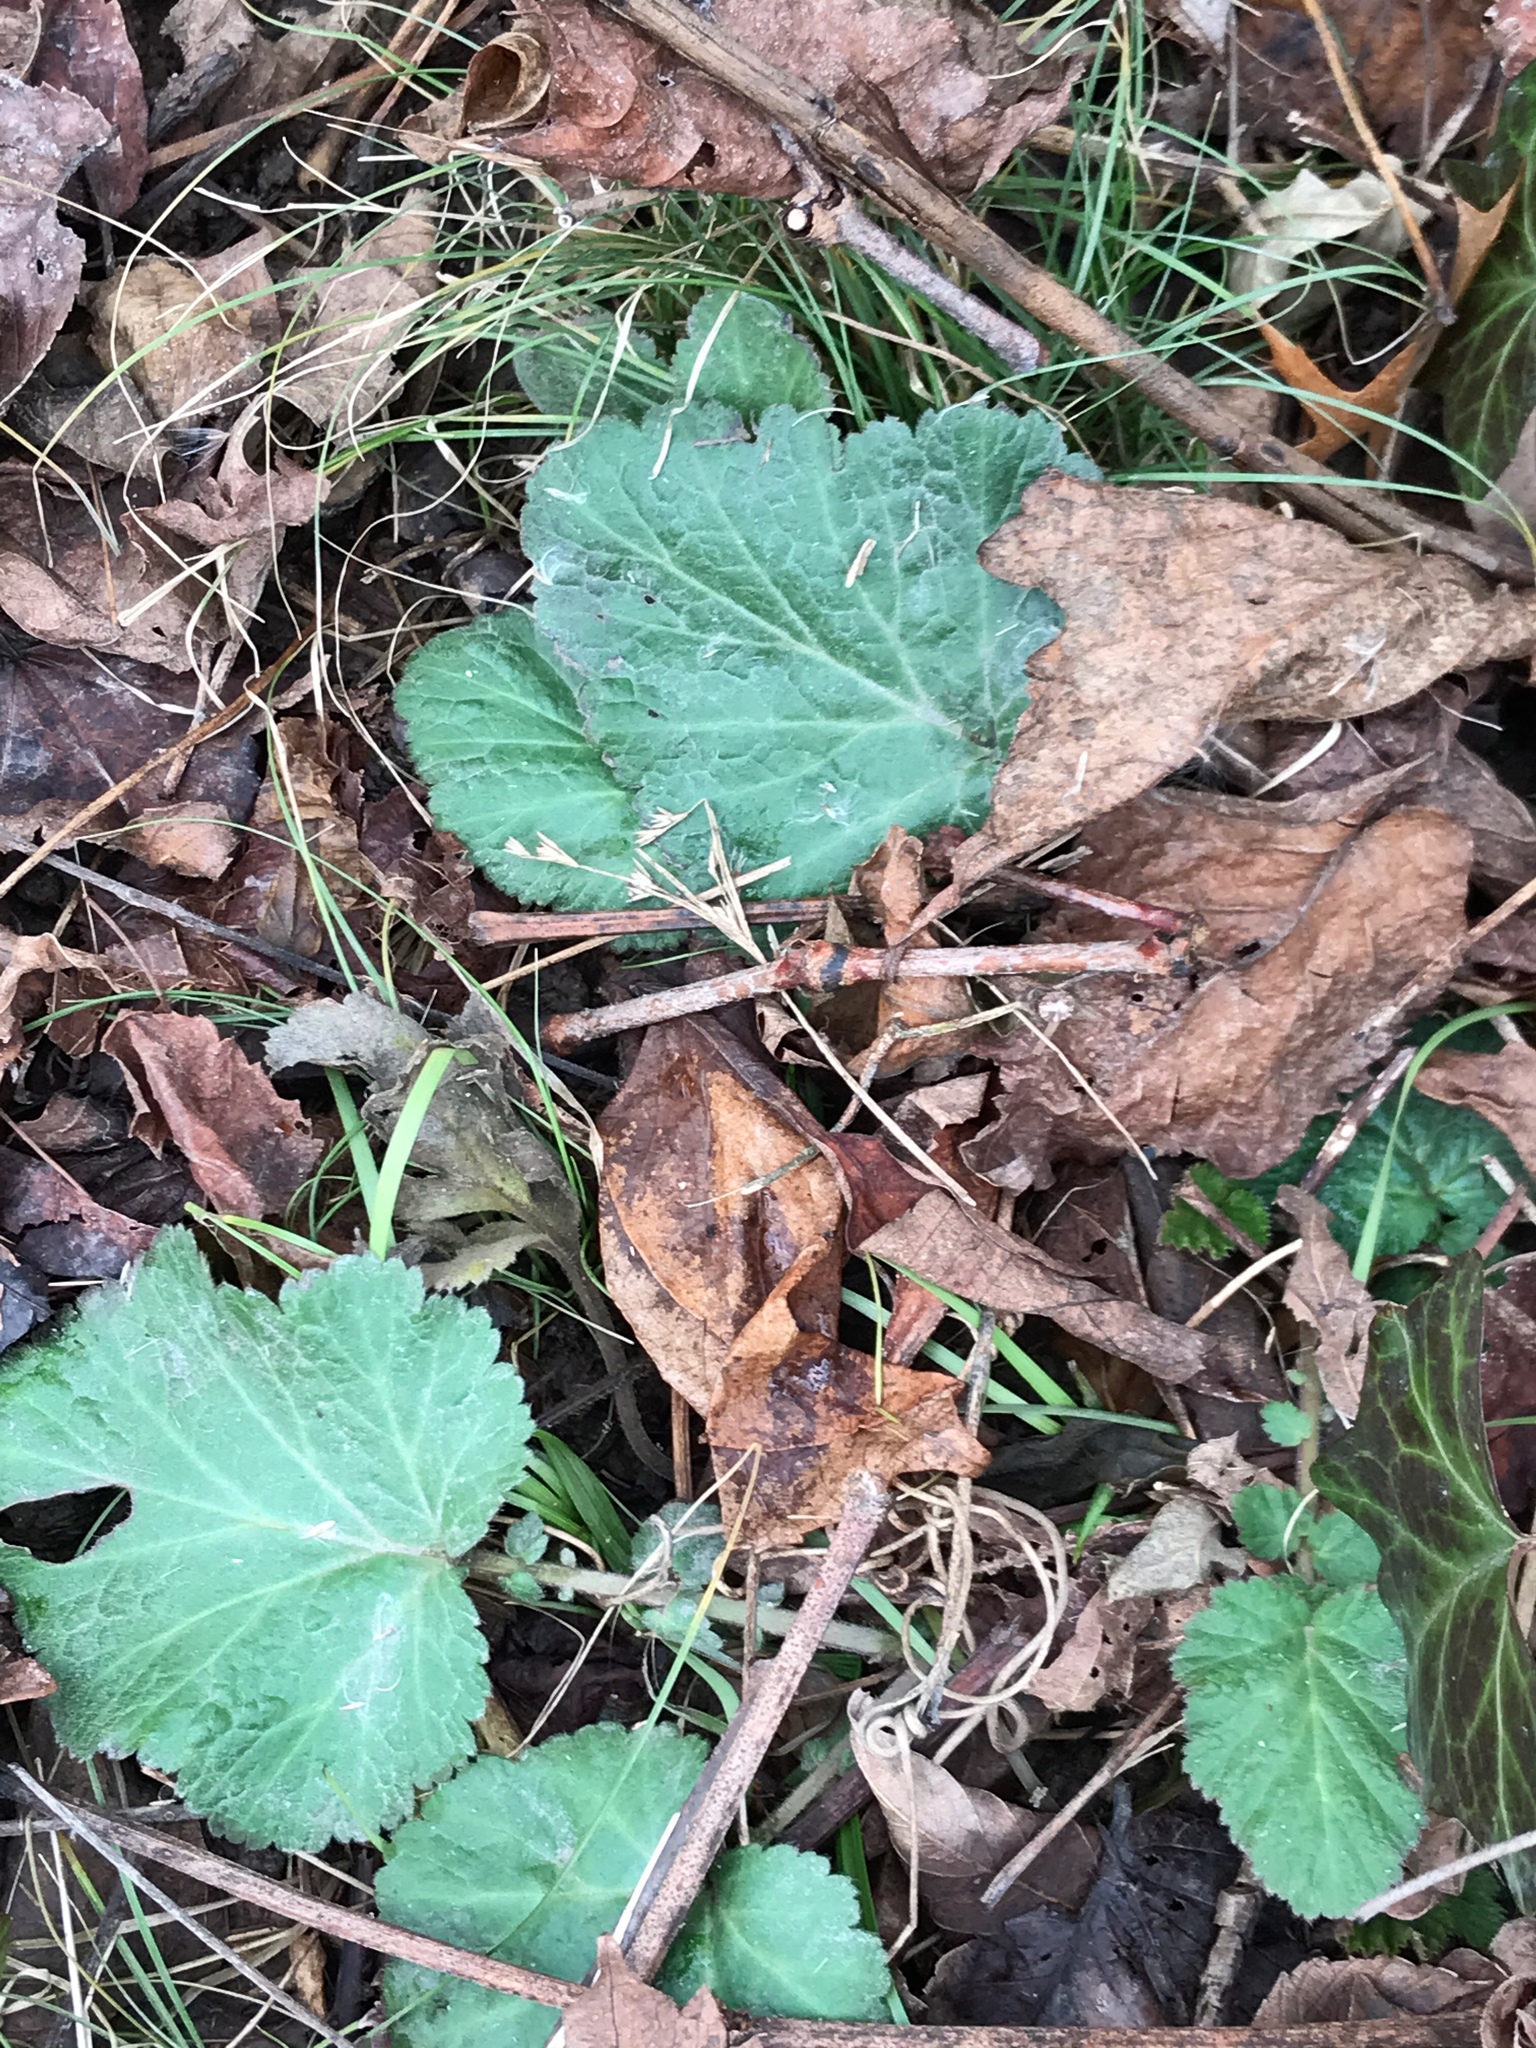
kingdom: Plantae
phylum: Tracheophyta
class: Magnoliopsida
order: Rosales
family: Rosaceae
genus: Geum
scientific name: Geum canadense
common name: White avens
